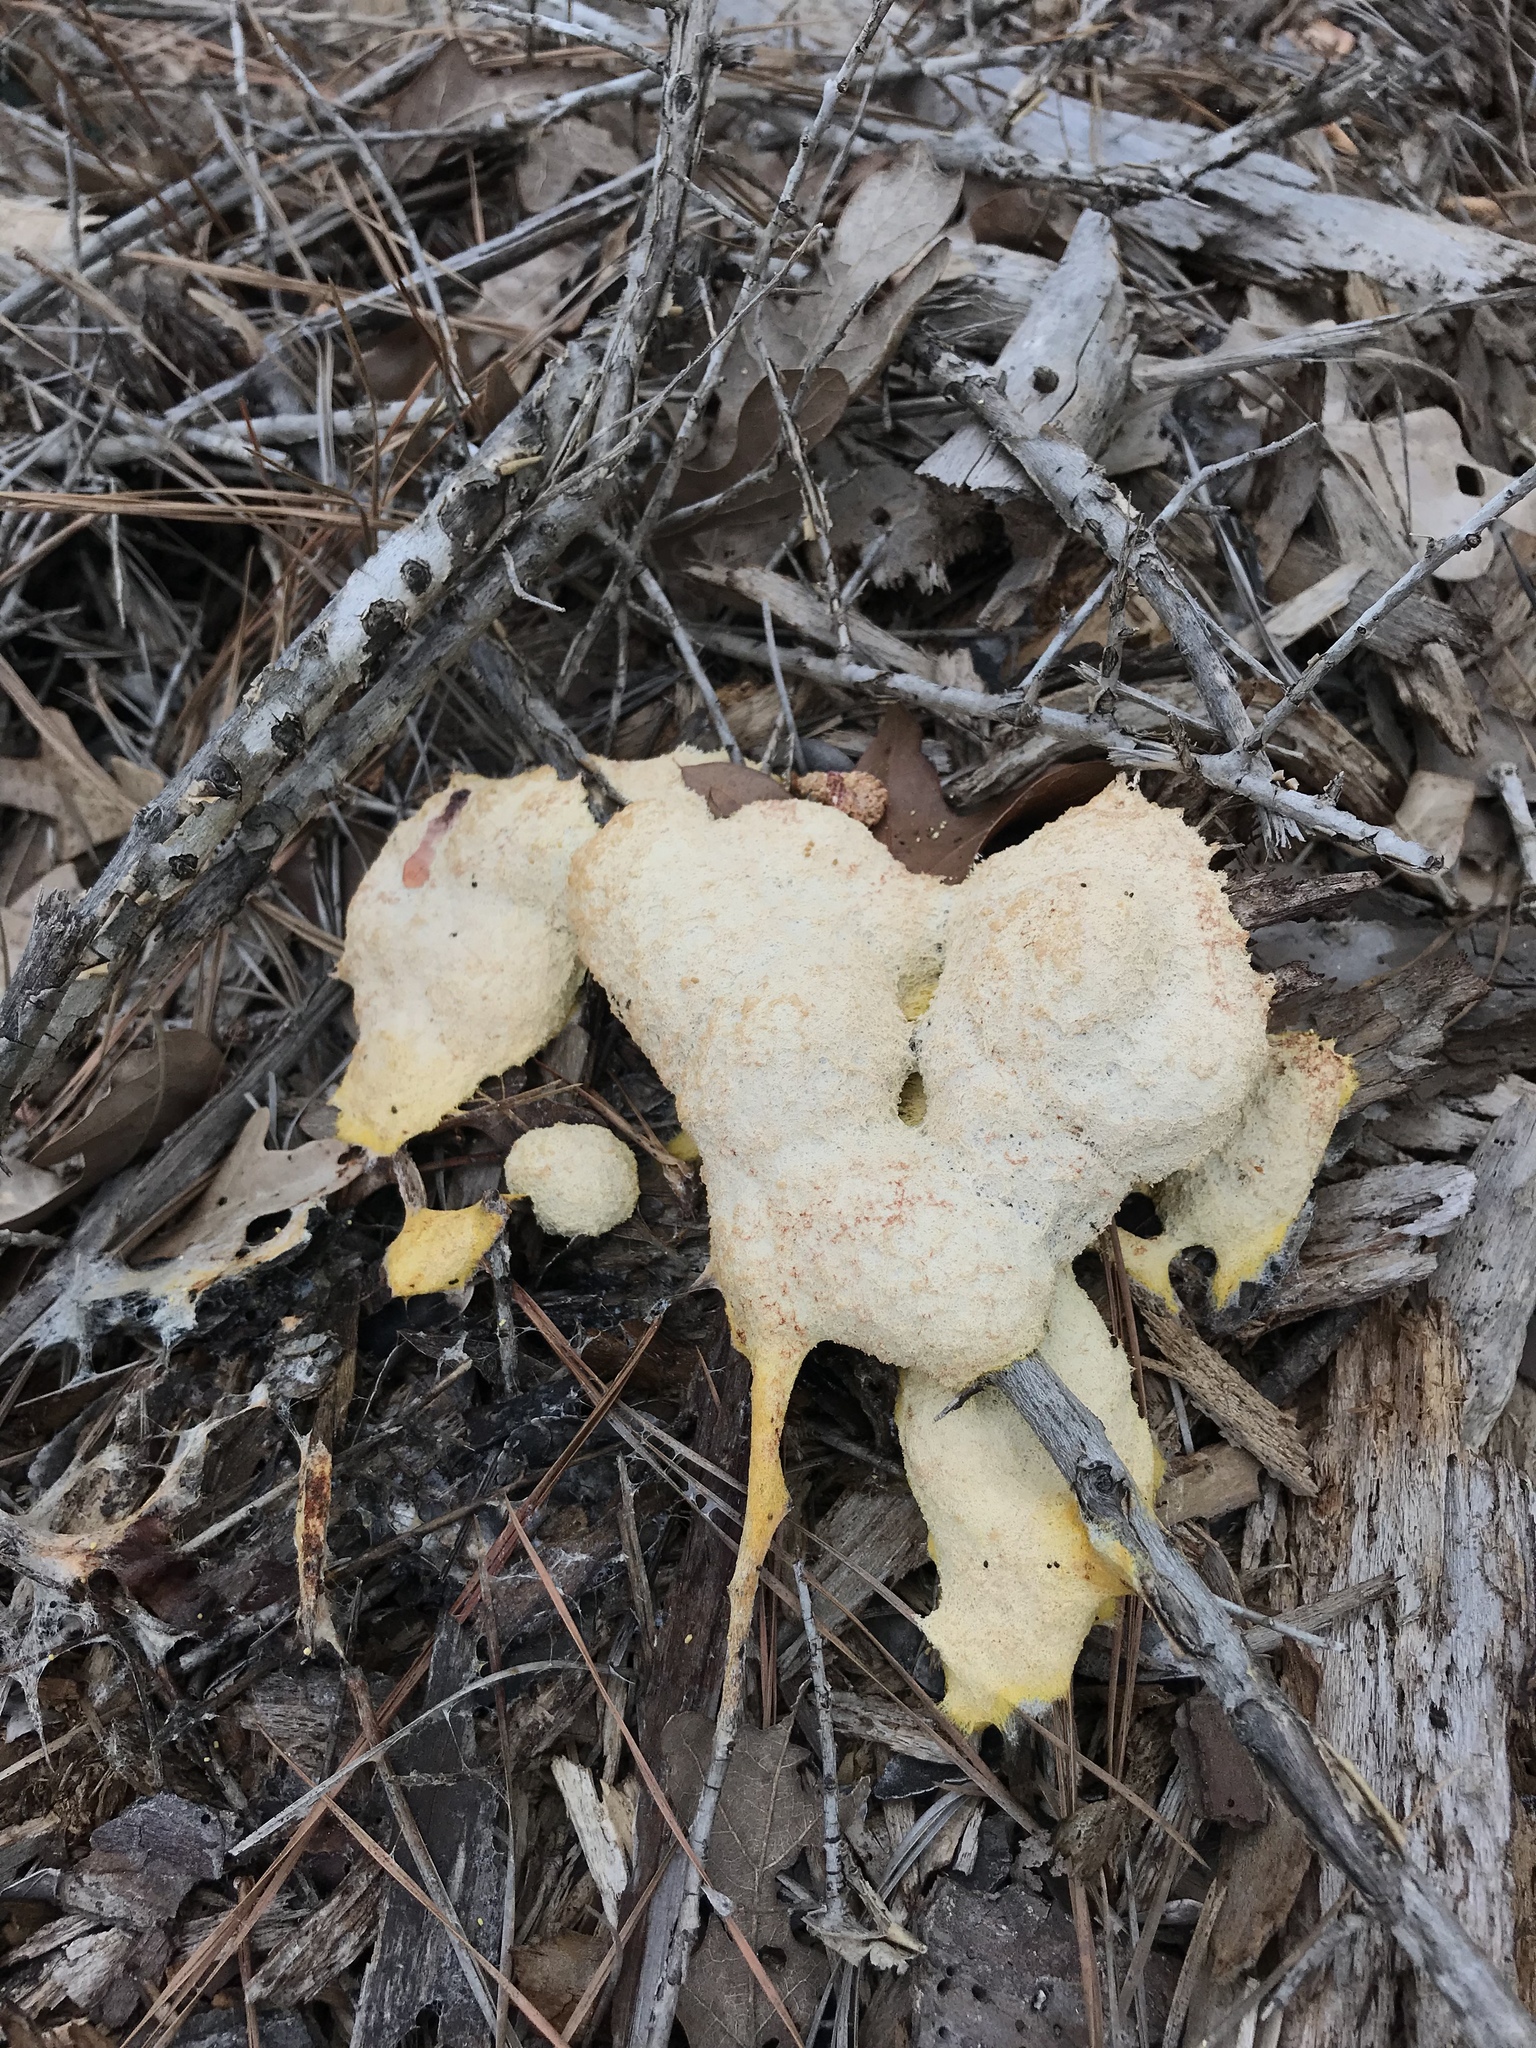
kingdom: Protozoa
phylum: Mycetozoa
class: Myxomycetes
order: Physarales
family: Physaraceae
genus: Fuligo
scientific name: Fuligo septica
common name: Dog vomit slime mold
